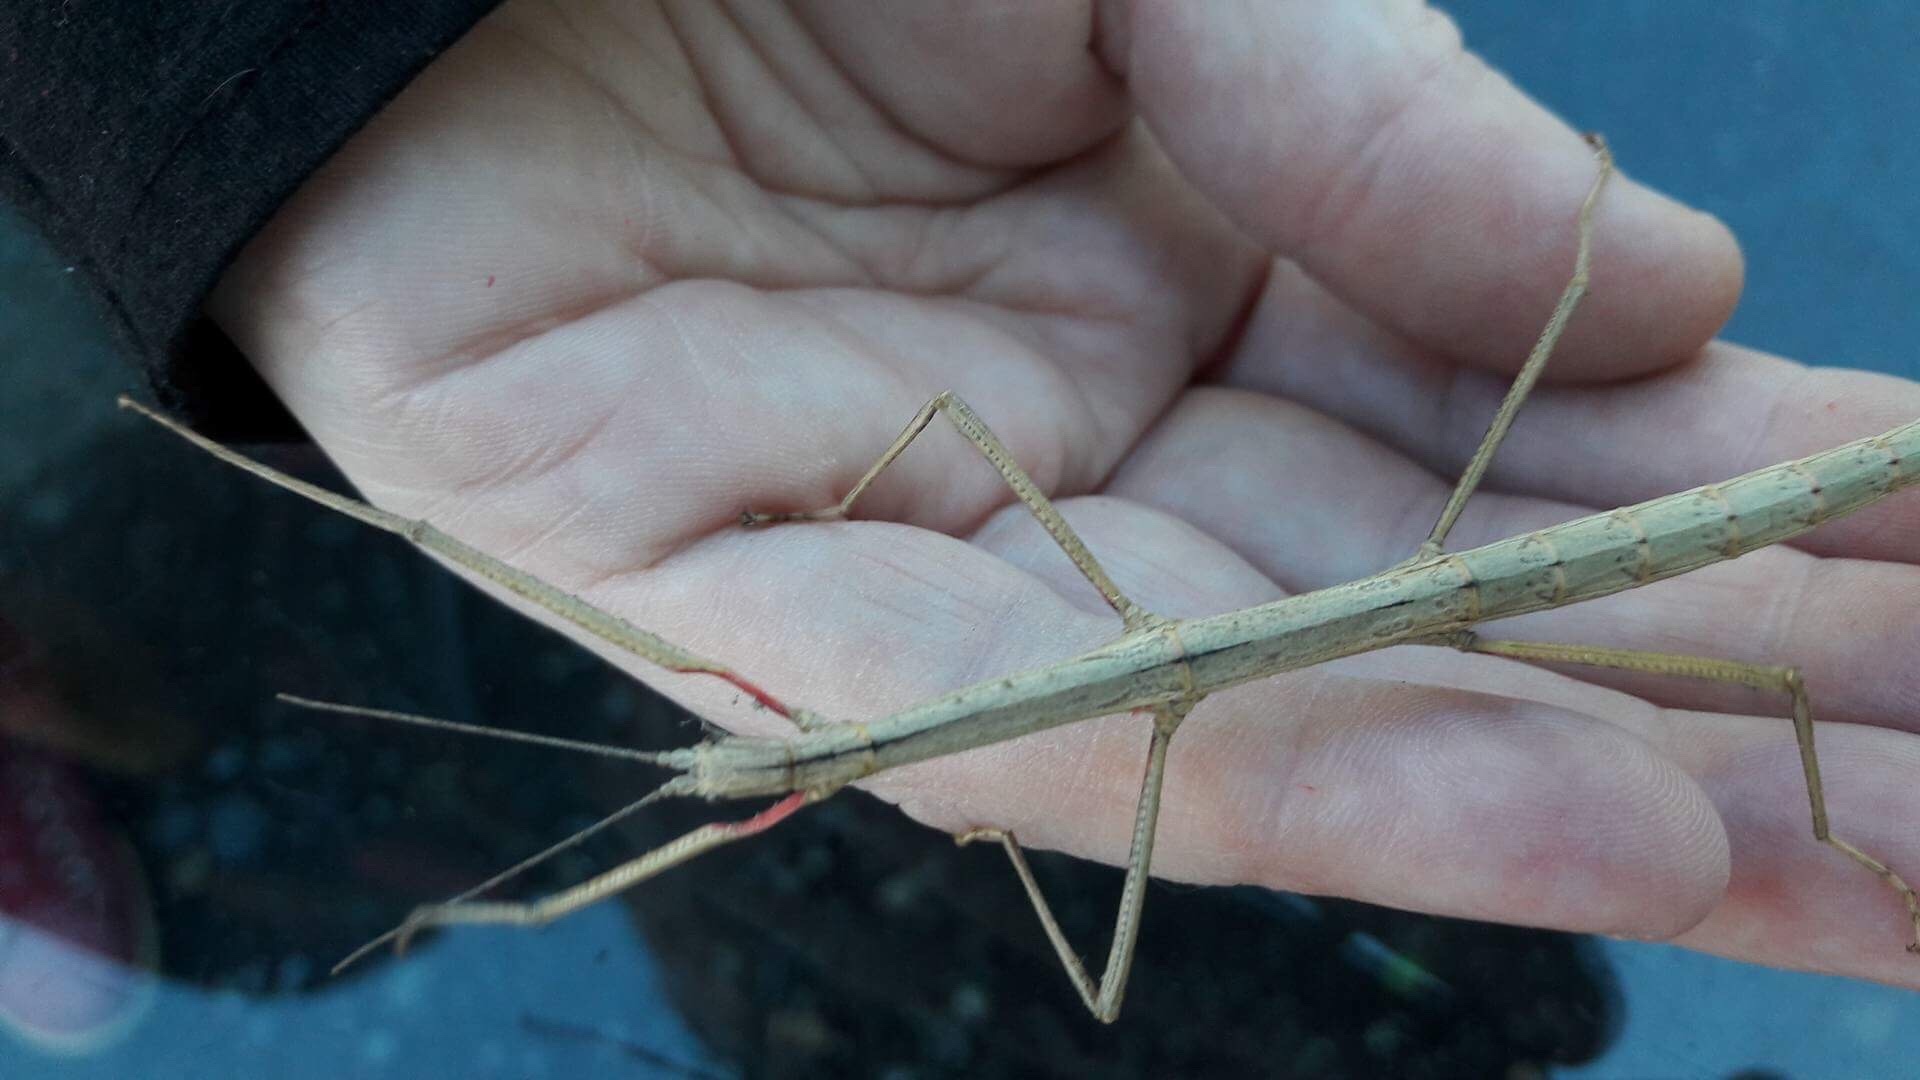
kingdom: Animalia
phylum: Arthropoda
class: Insecta
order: Phasmida
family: Phasmatidae
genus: Clitarchus
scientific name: Clitarchus hookeri
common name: Smooth stick insect
